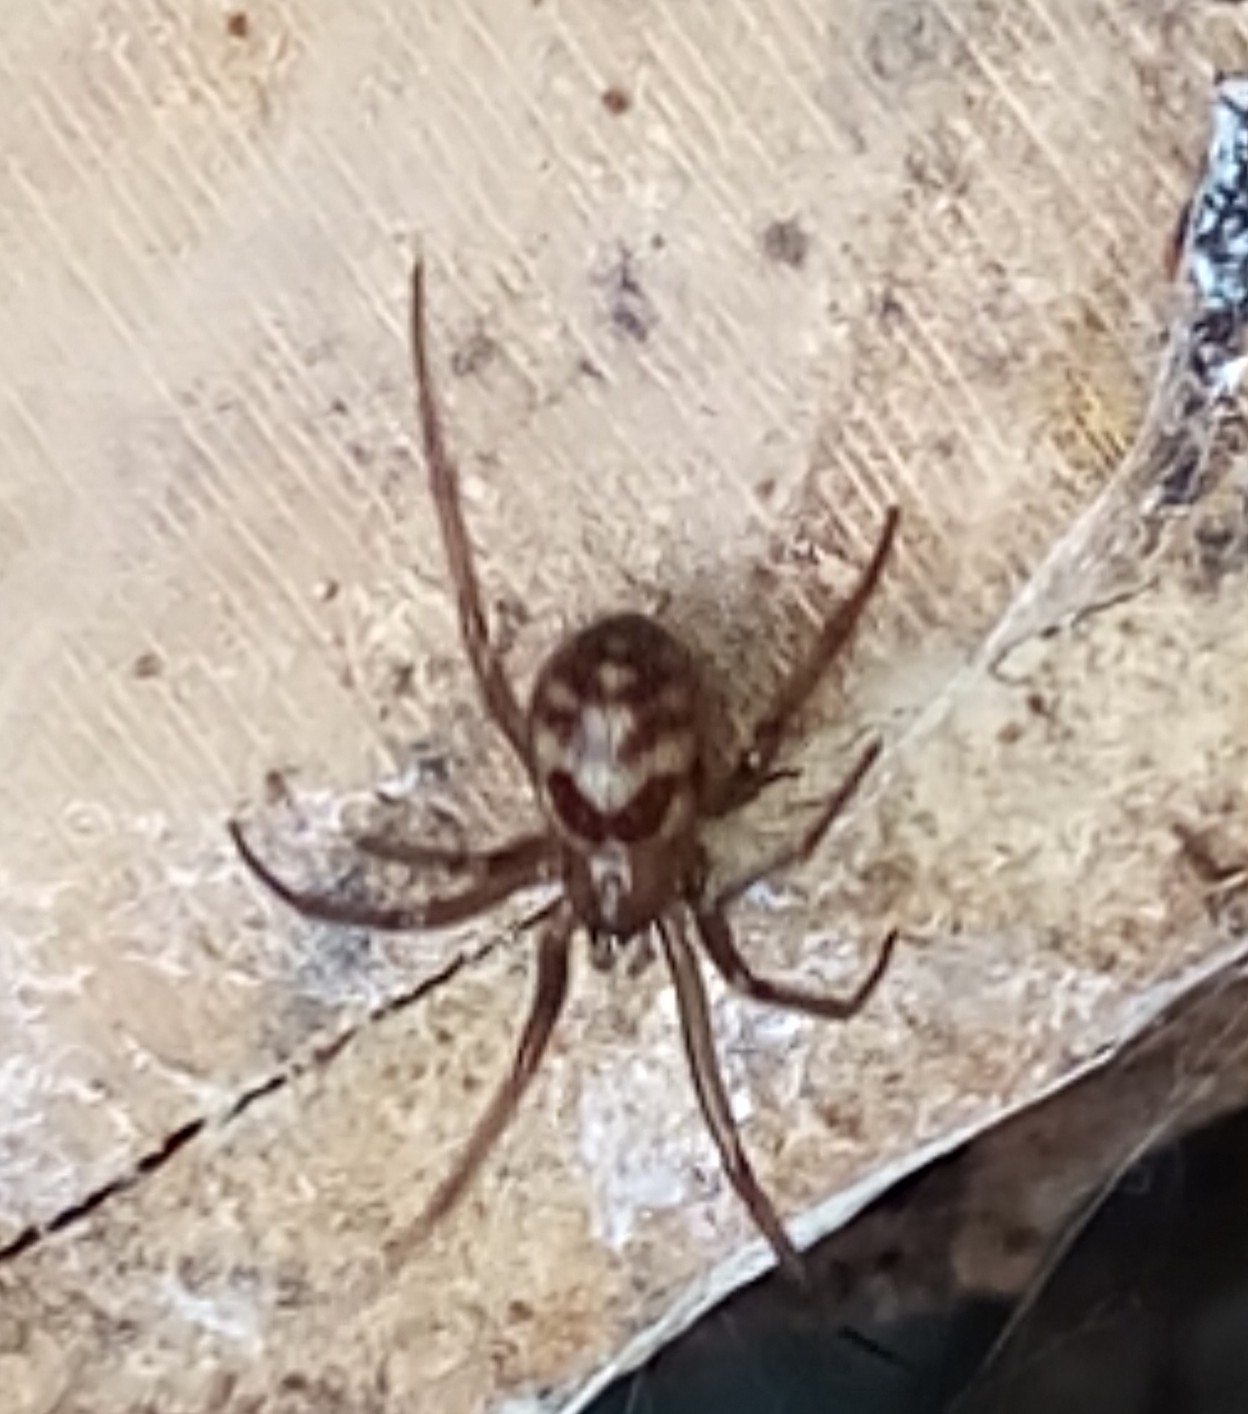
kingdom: Animalia
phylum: Arthropoda
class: Arachnida
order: Araneae
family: Theridiidae
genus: Steatoda
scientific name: Steatoda grossa
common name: False black widow
